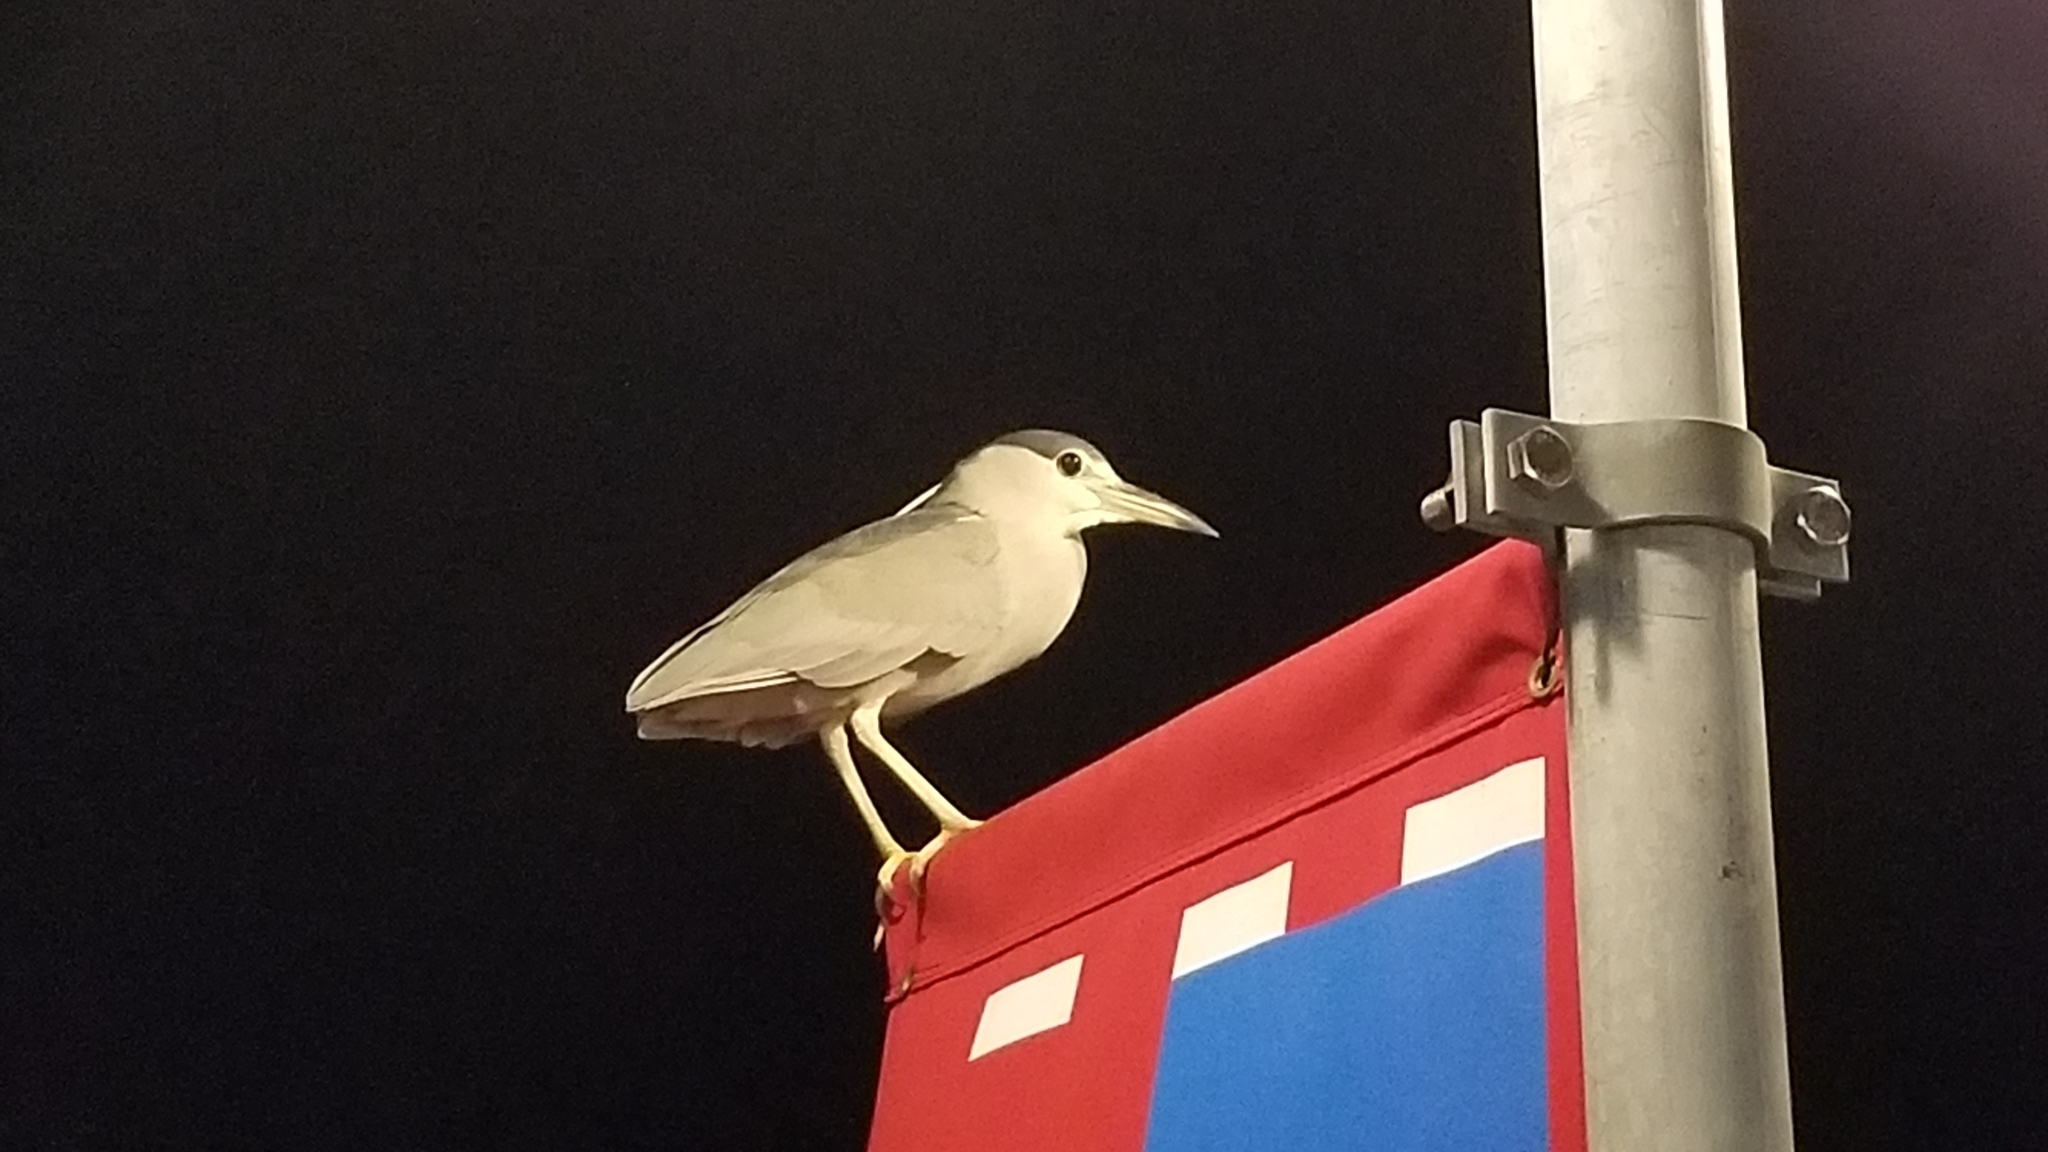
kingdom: Animalia
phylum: Chordata
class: Aves
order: Pelecaniformes
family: Ardeidae
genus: Nycticorax
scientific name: Nycticorax nycticorax
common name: Black-crowned night heron
